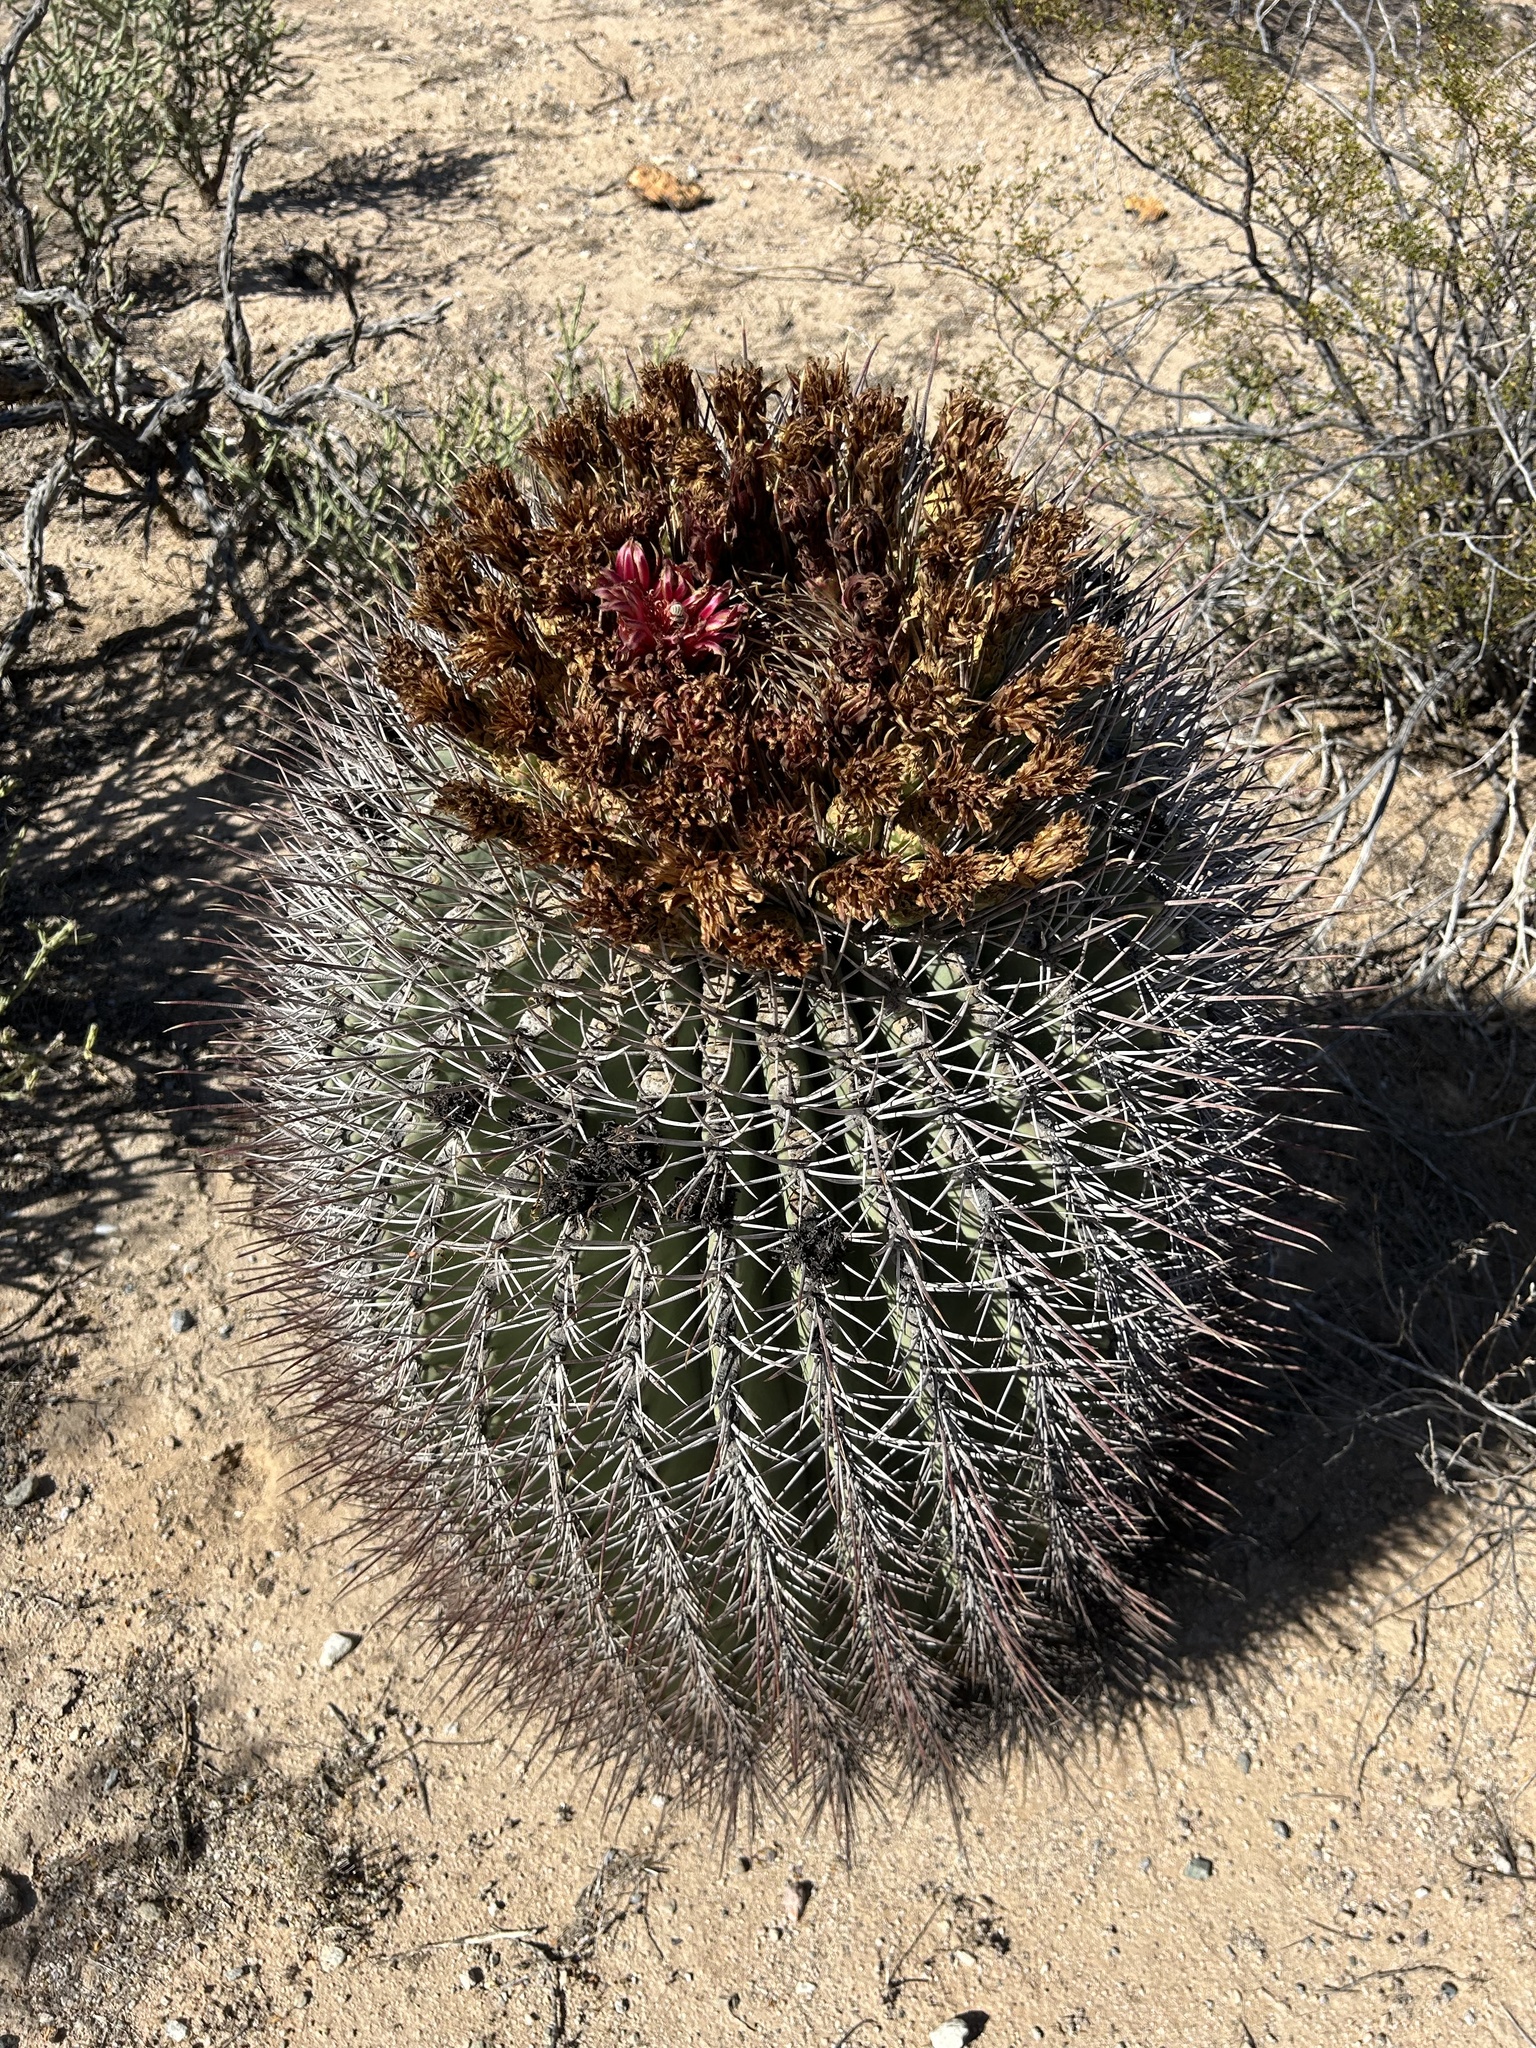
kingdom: Plantae
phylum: Tracheophyta
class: Magnoliopsida
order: Caryophyllales
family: Cactaceae
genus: Ferocactus
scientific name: Ferocactus emoryi
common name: Emory's barrel cactus
